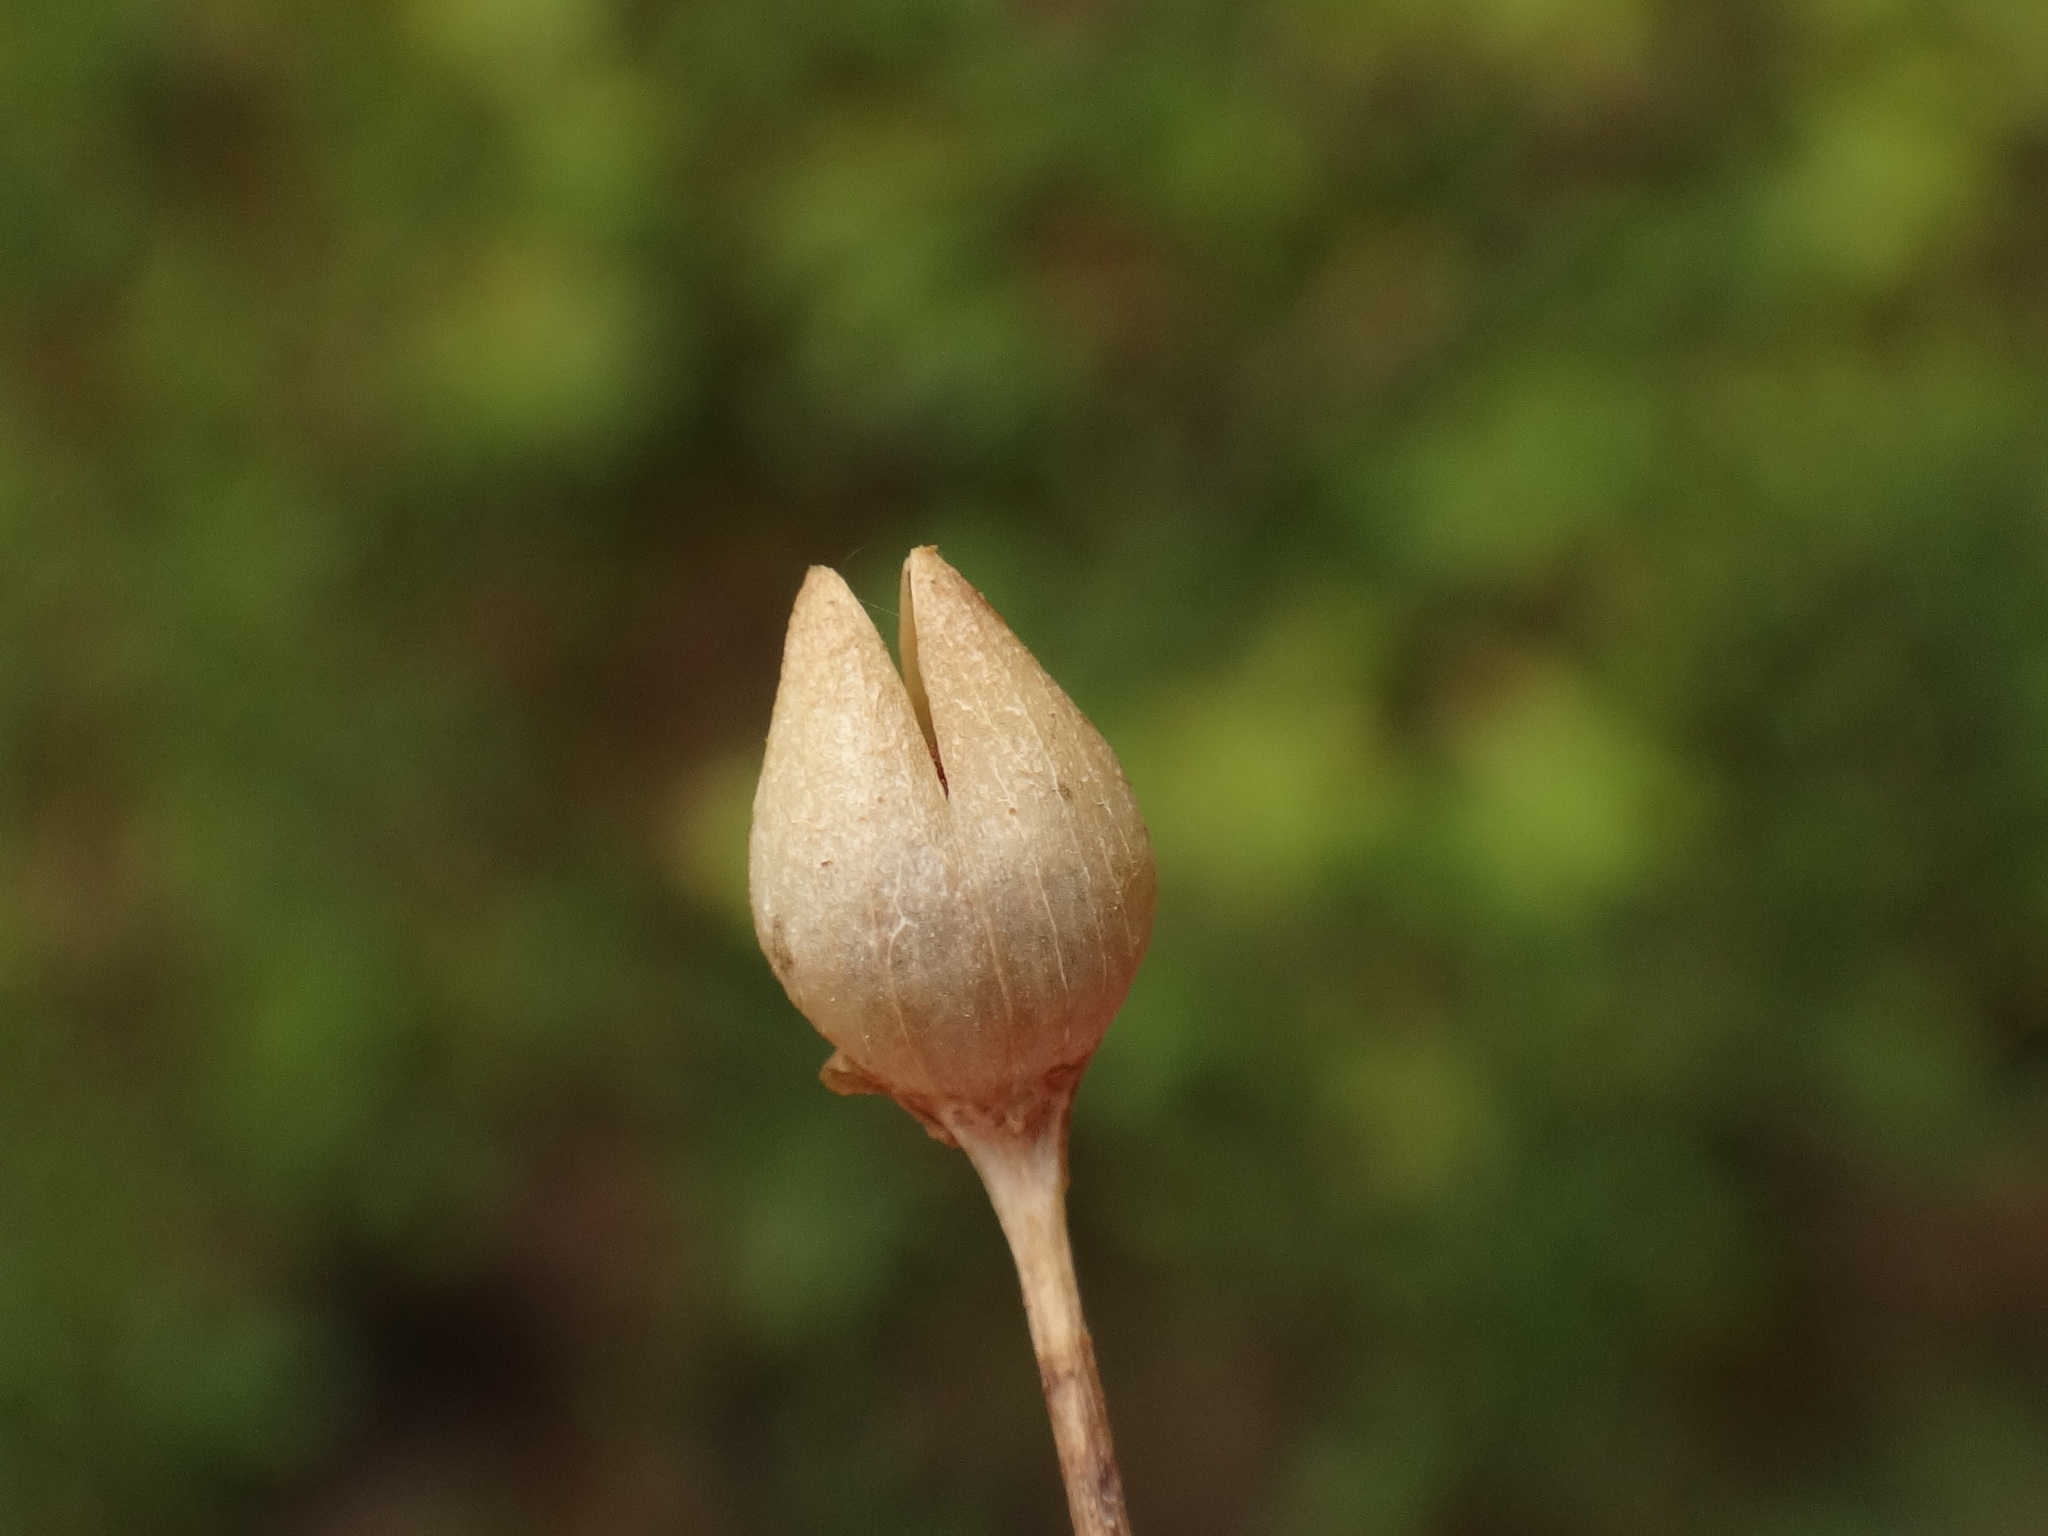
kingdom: Plantae
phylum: Tracheophyta
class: Magnoliopsida
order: Lamiales
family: Lentibulariaceae
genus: Pinguicula
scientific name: Pinguicula vulgaris
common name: Common butterwort
